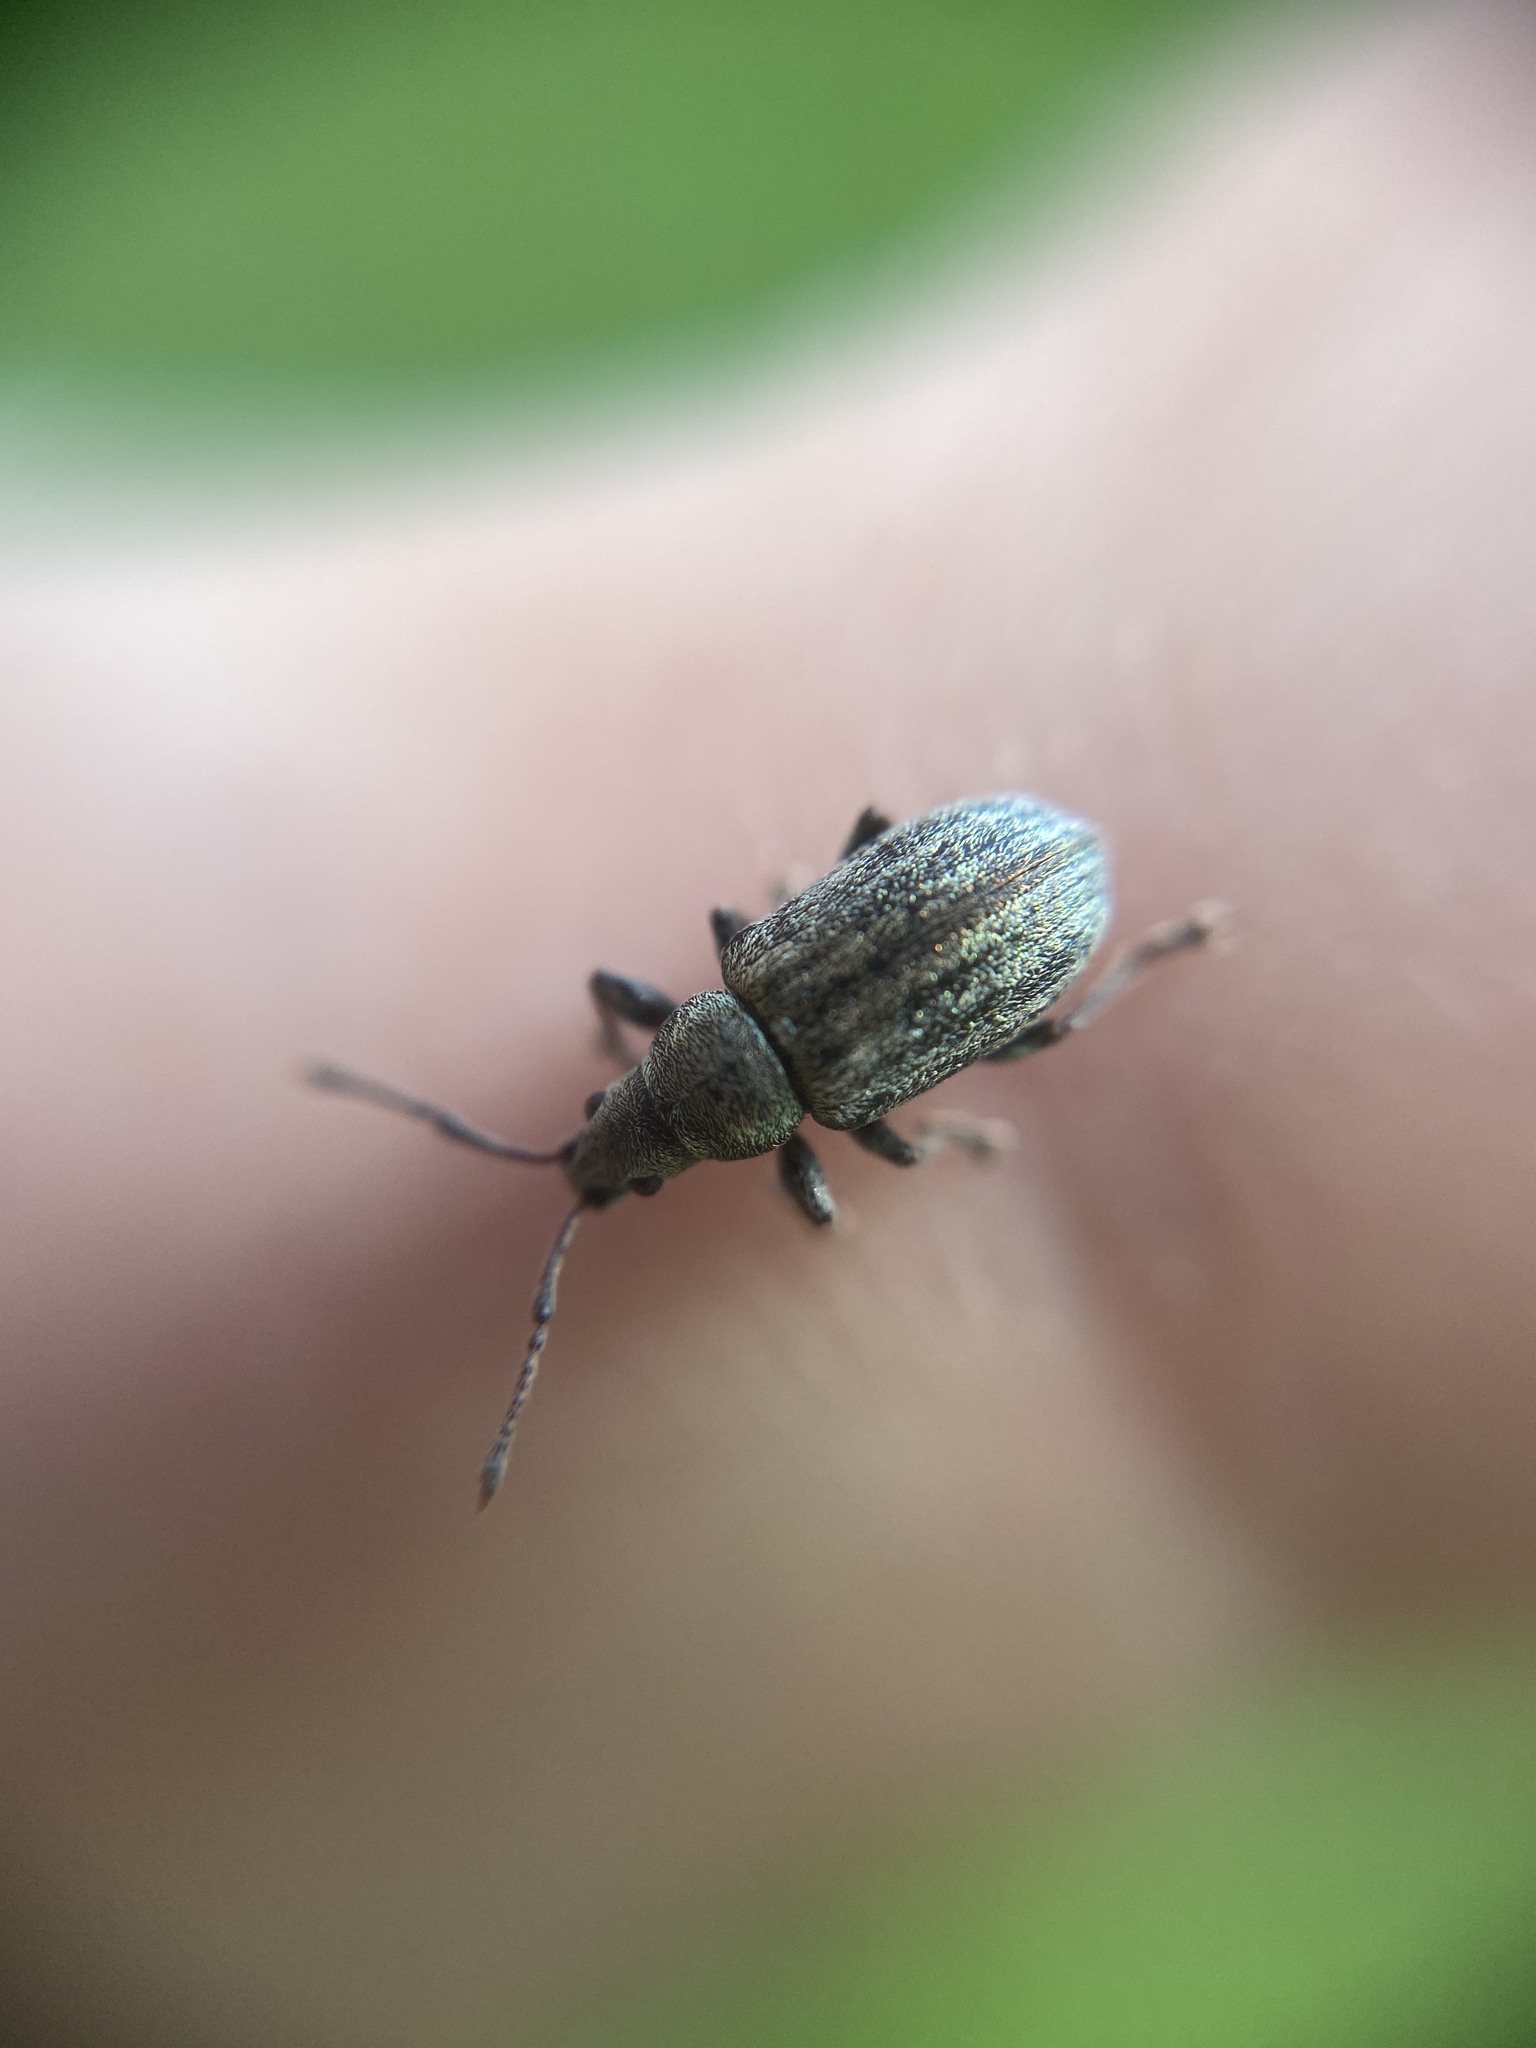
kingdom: Animalia
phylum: Arthropoda
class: Insecta
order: Coleoptera
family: Curculionidae
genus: Phyllobius
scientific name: Phyllobius pyri
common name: Common leaf weevil
